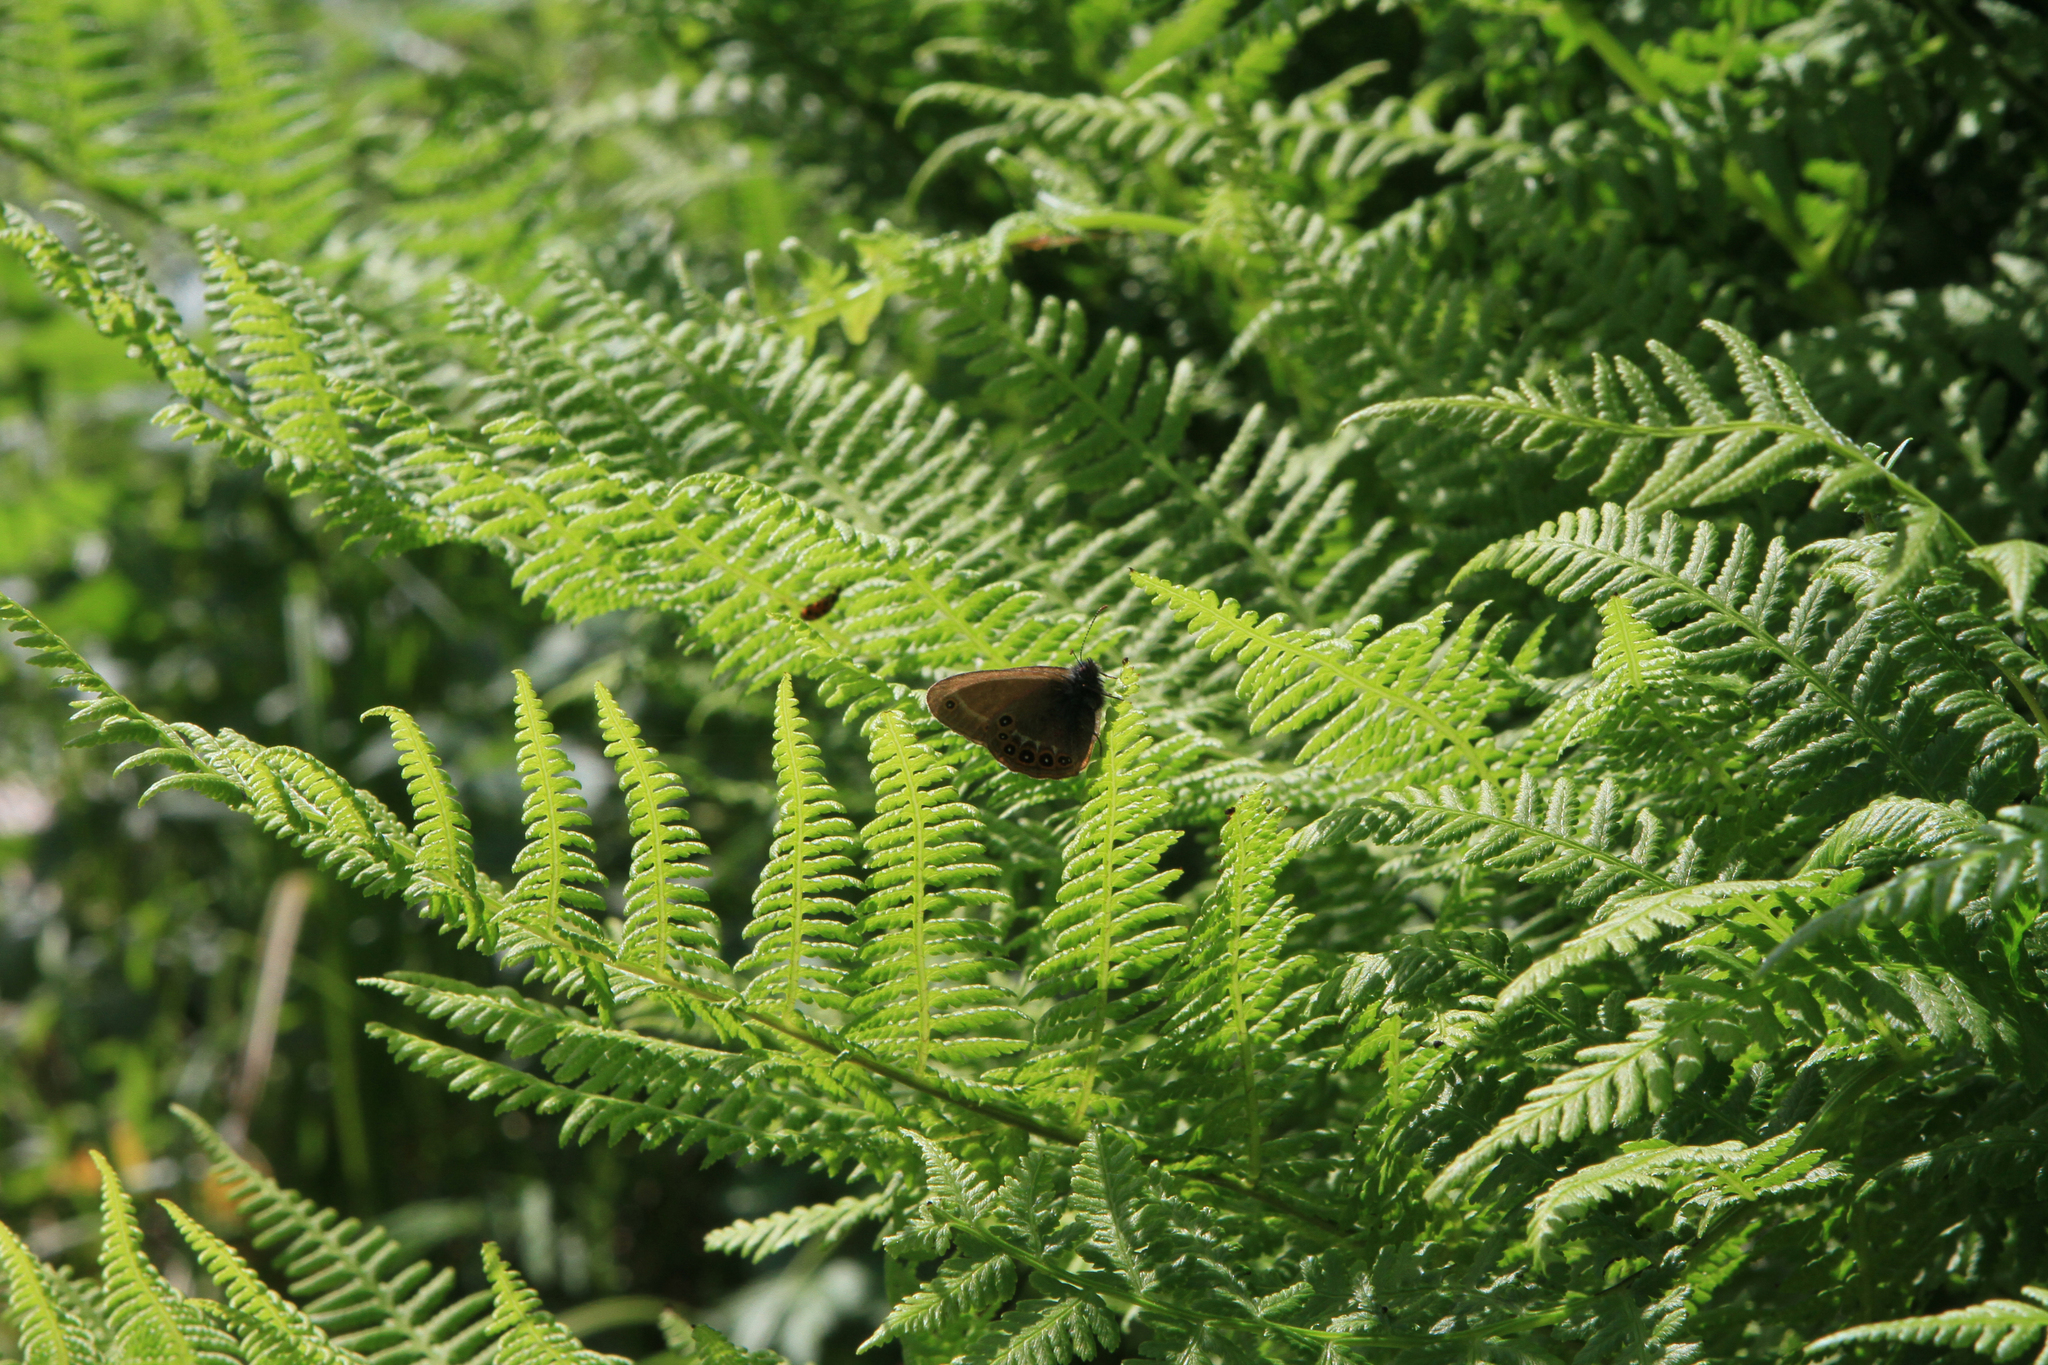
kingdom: Animalia
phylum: Arthropoda
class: Insecta
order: Lepidoptera
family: Nymphalidae
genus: Coenonympha
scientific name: Coenonympha hero
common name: Scarce heath
